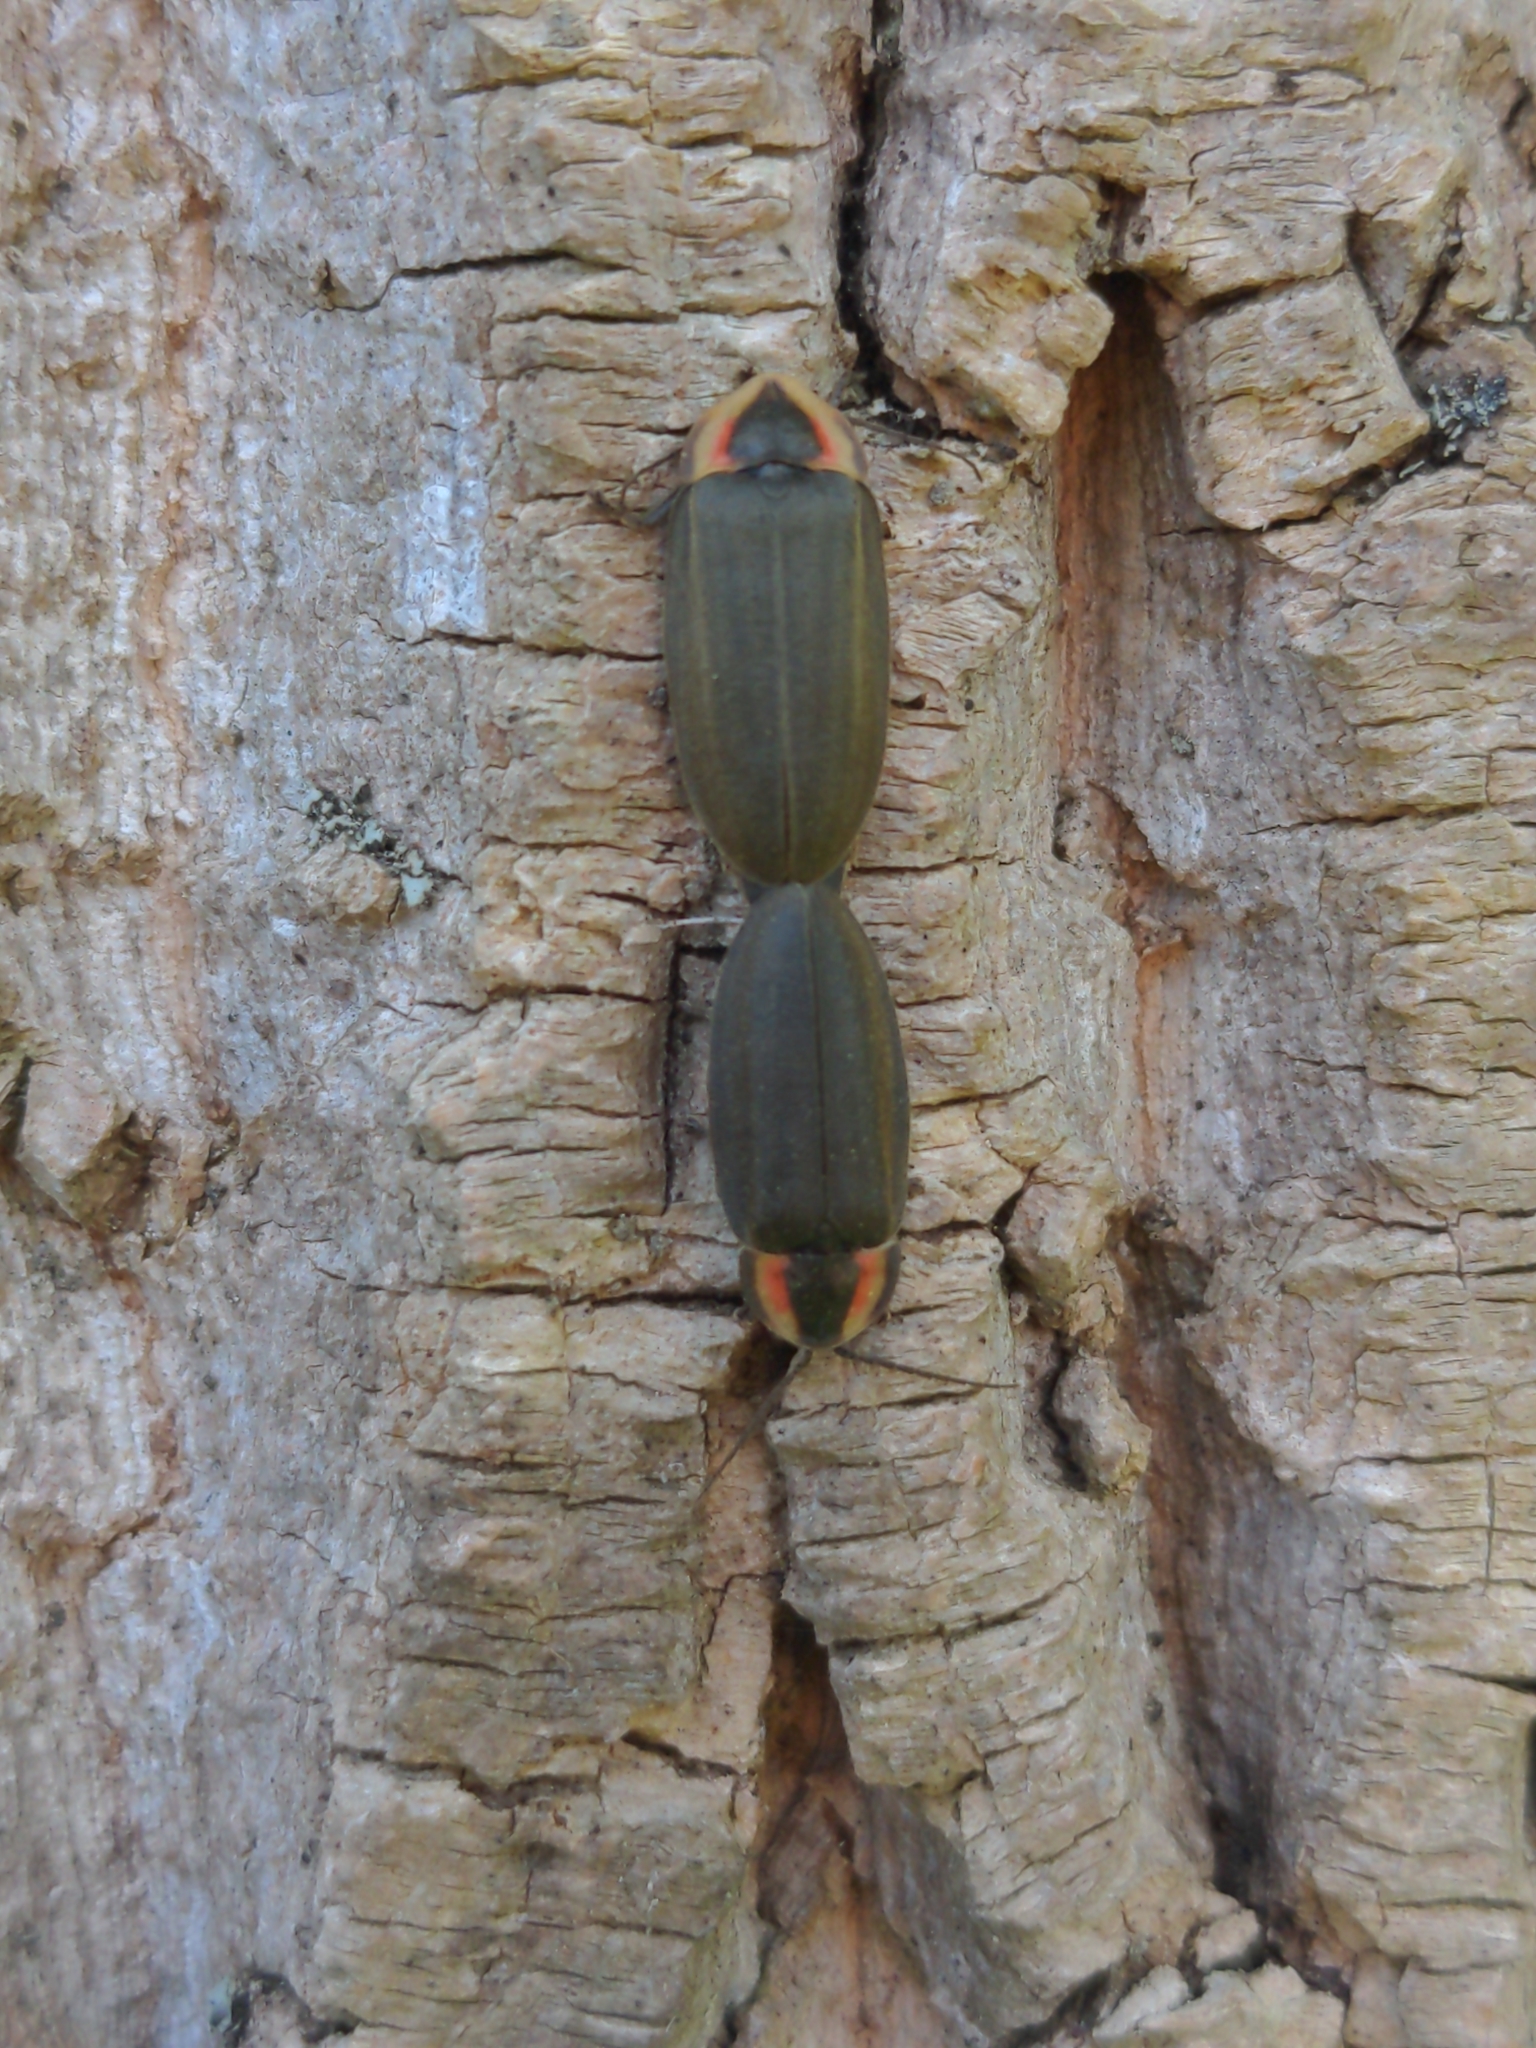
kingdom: Animalia
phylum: Arthropoda
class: Insecta
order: Coleoptera
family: Lampyridae
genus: Photinus
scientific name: Photinus corrusca
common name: Winter firefly
